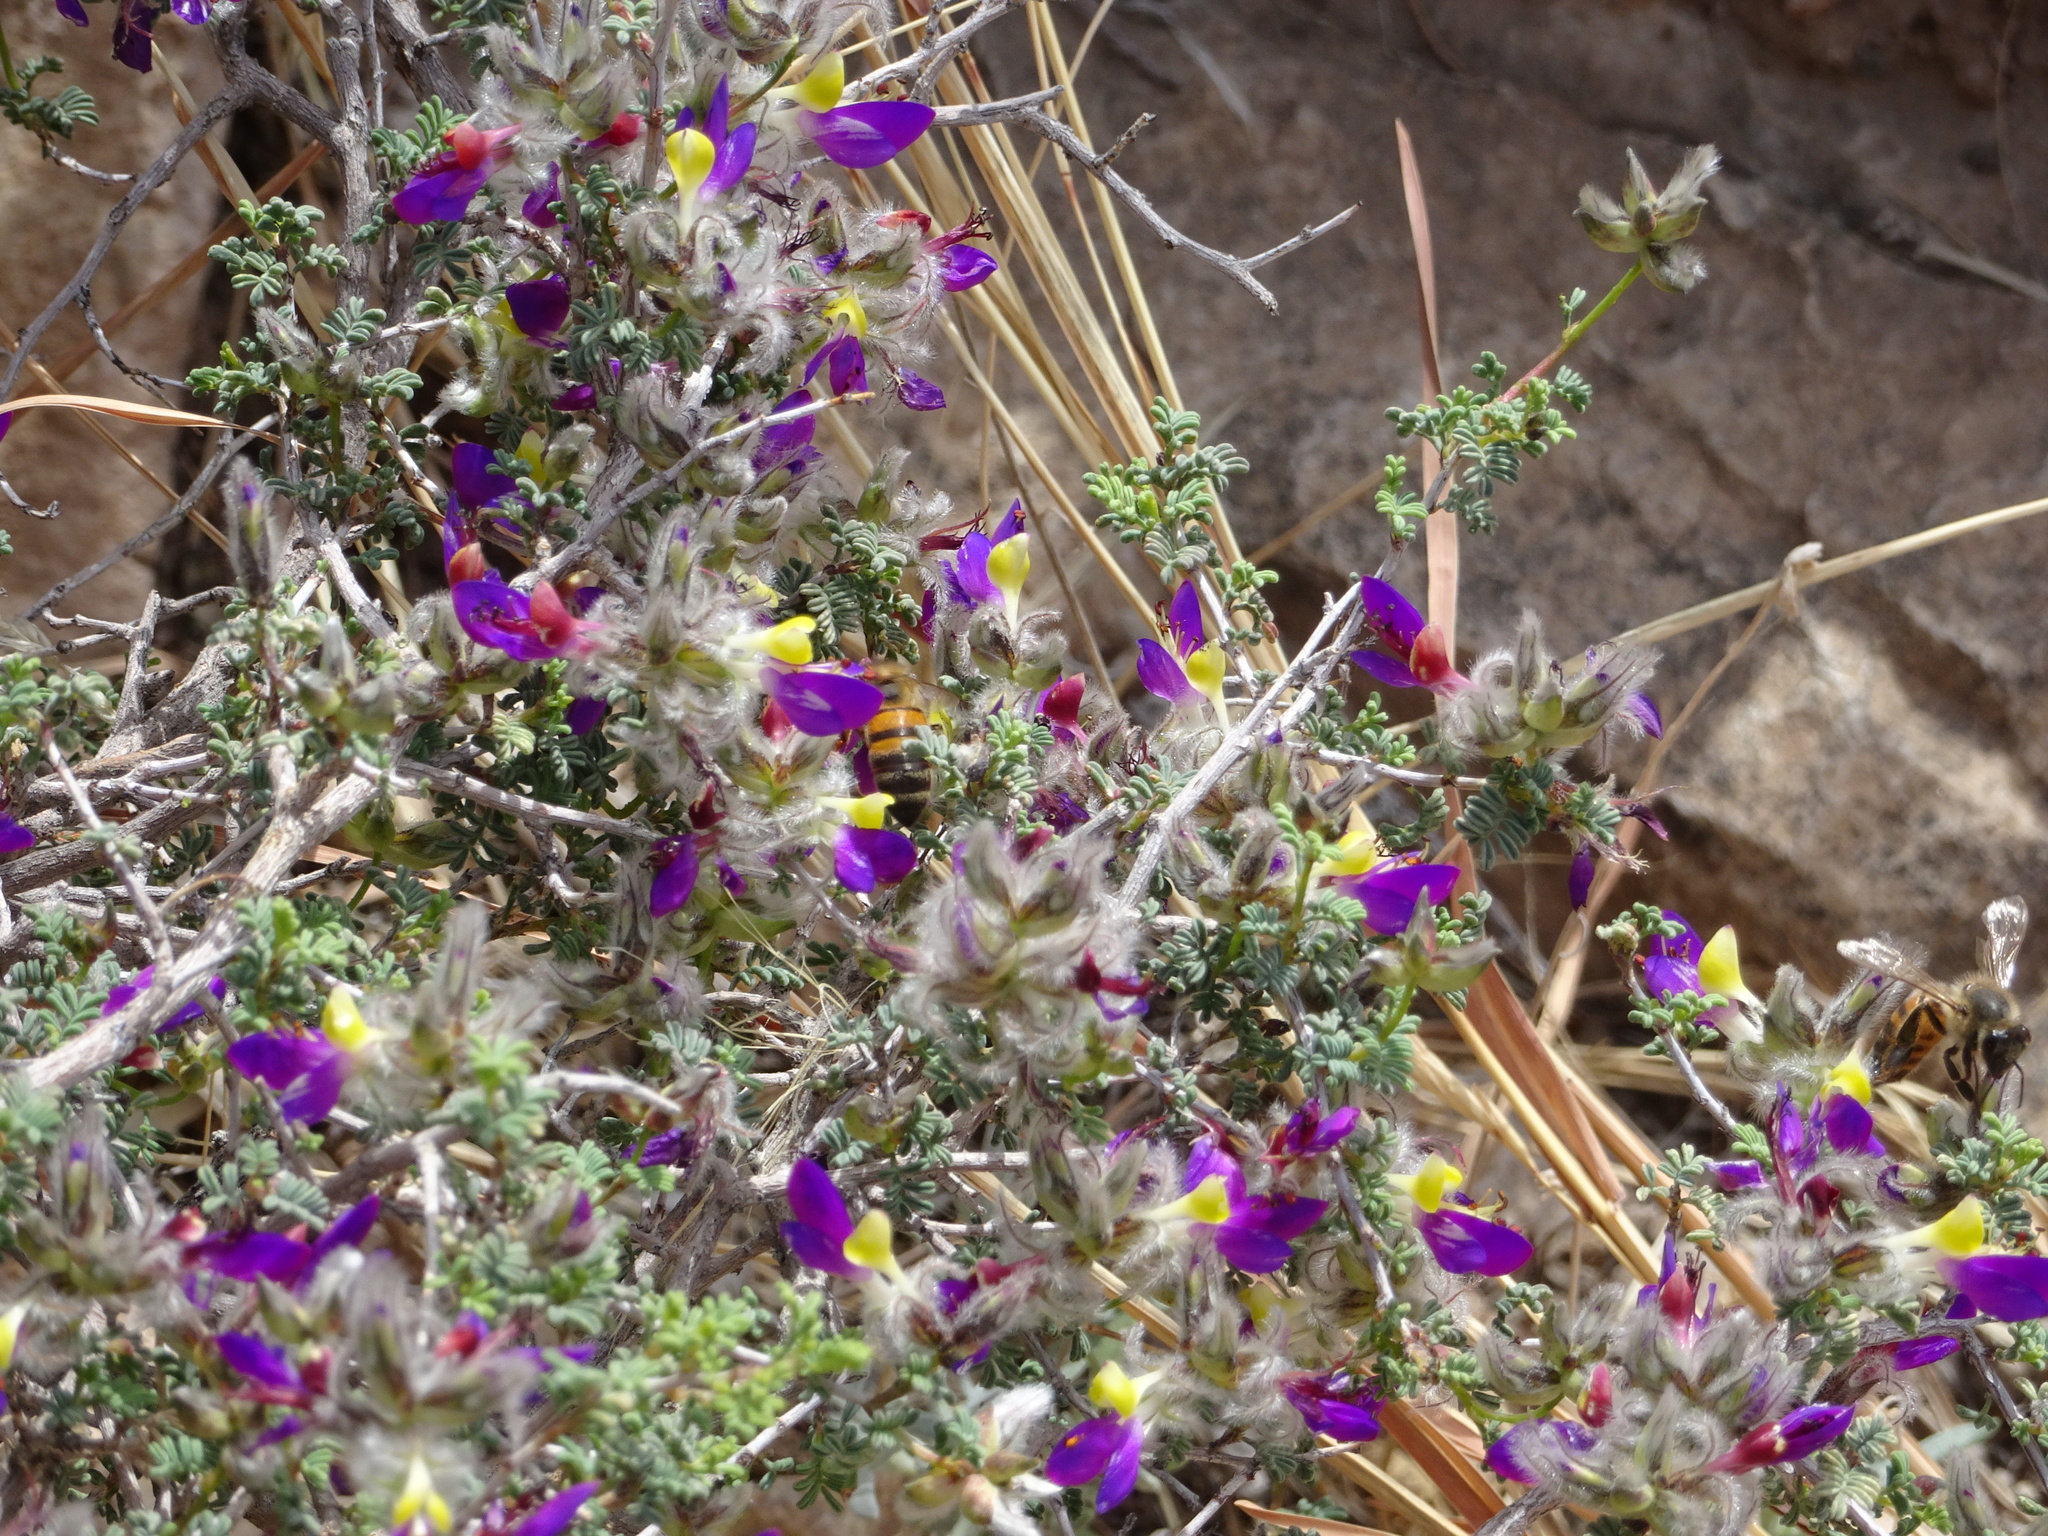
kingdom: Animalia
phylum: Arthropoda
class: Insecta
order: Hymenoptera
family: Apidae
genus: Apis
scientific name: Apis mellifera
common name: Honey bee
